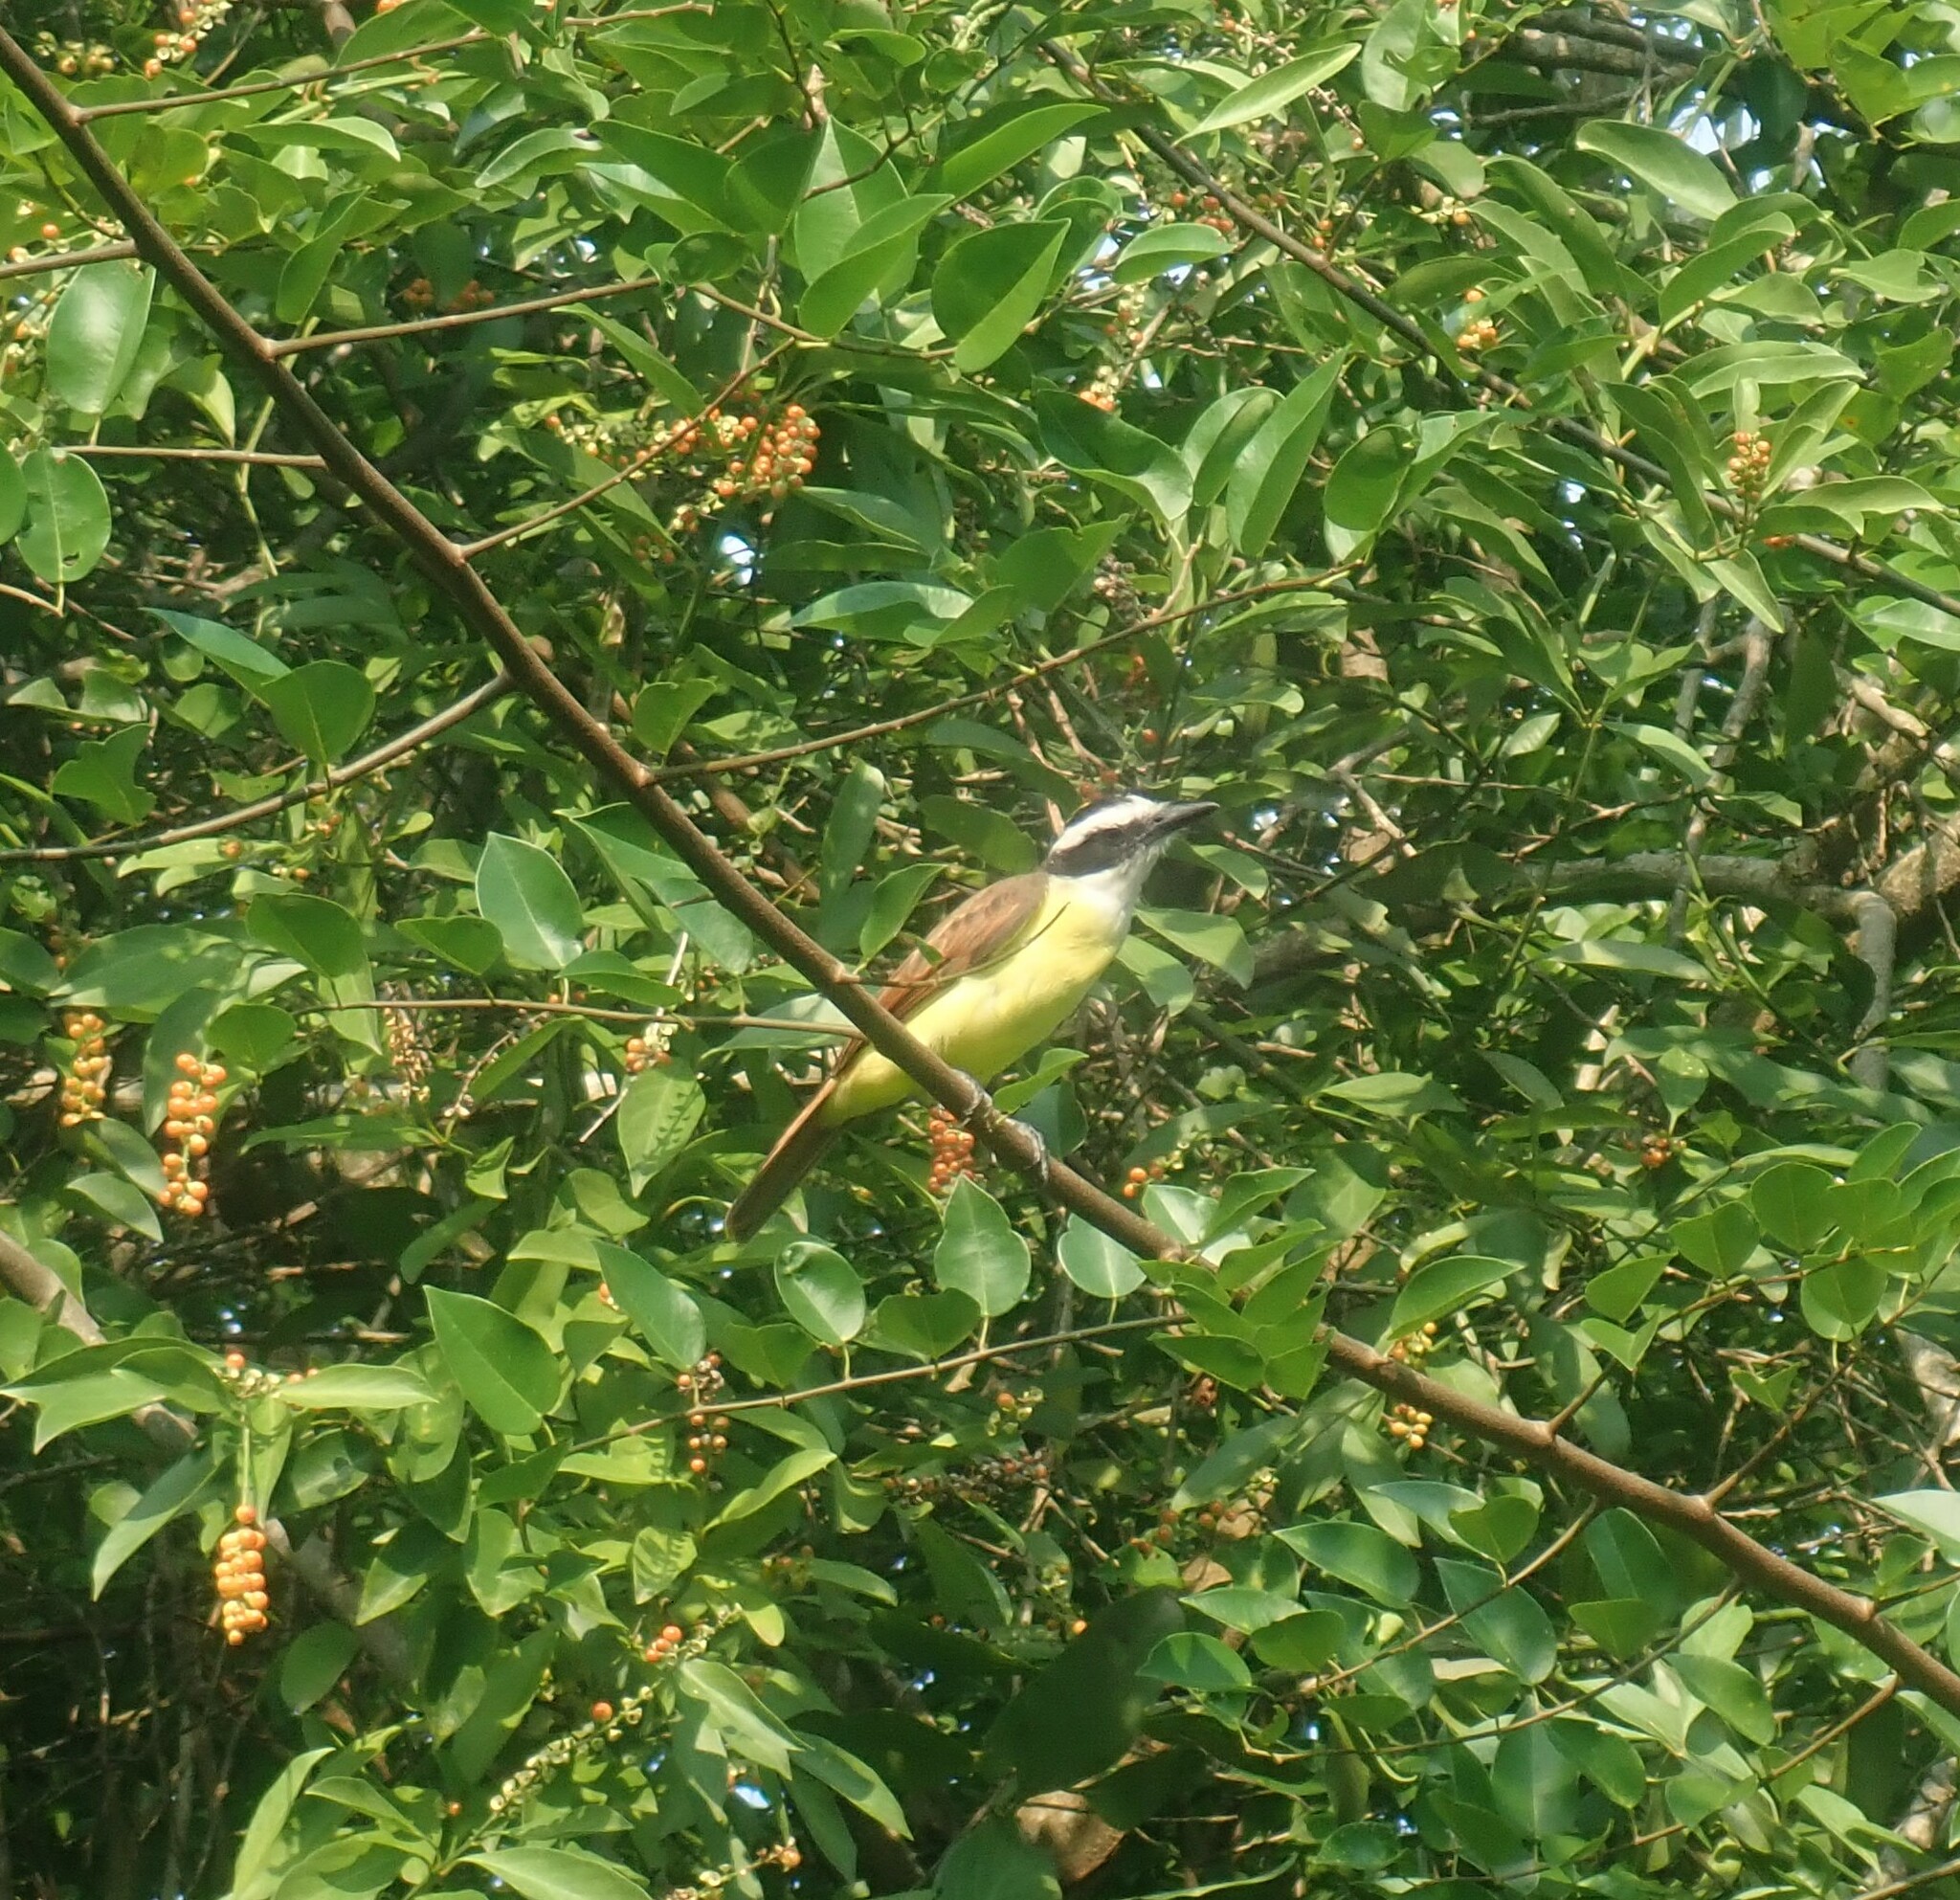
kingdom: Animalia
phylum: Chordata
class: Aves
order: Passeriformes
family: Tyrannidae
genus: Pitangus
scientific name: Pitangus sulphuratus
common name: Great kiskadee
